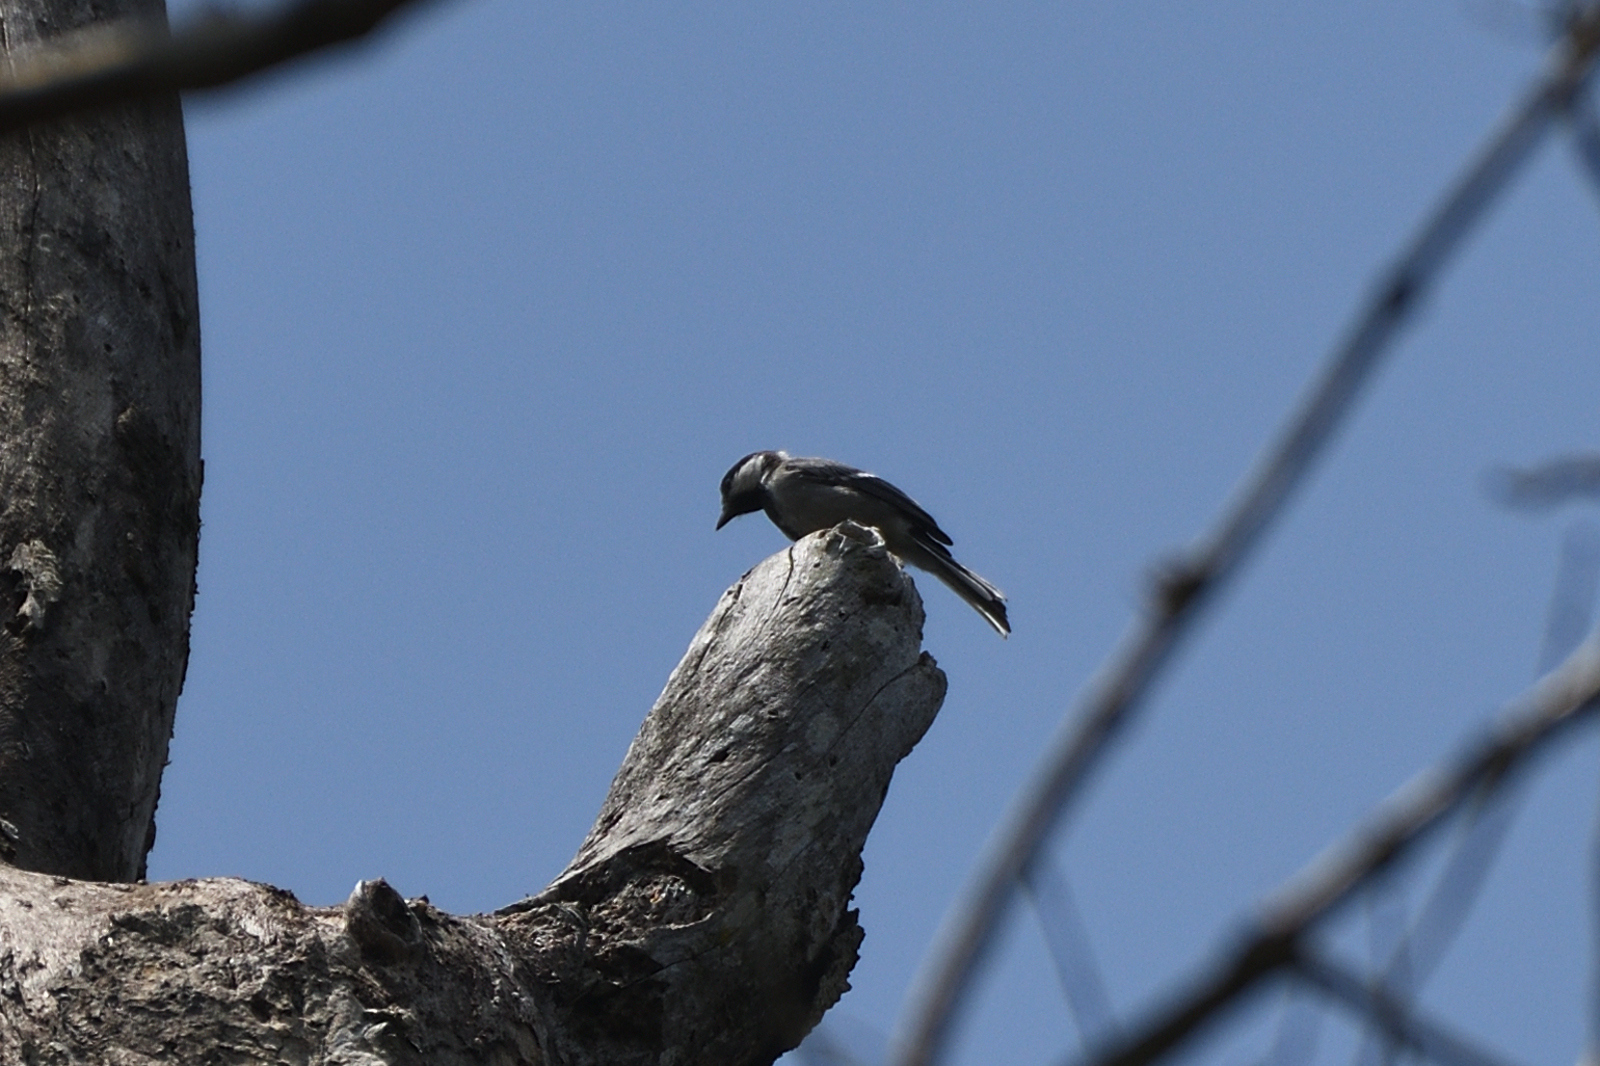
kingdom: Animalia
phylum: Chordata
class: Aves
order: Passeriformes
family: Paridae
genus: Parus
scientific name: Parus cinereus
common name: Cinereous tit
